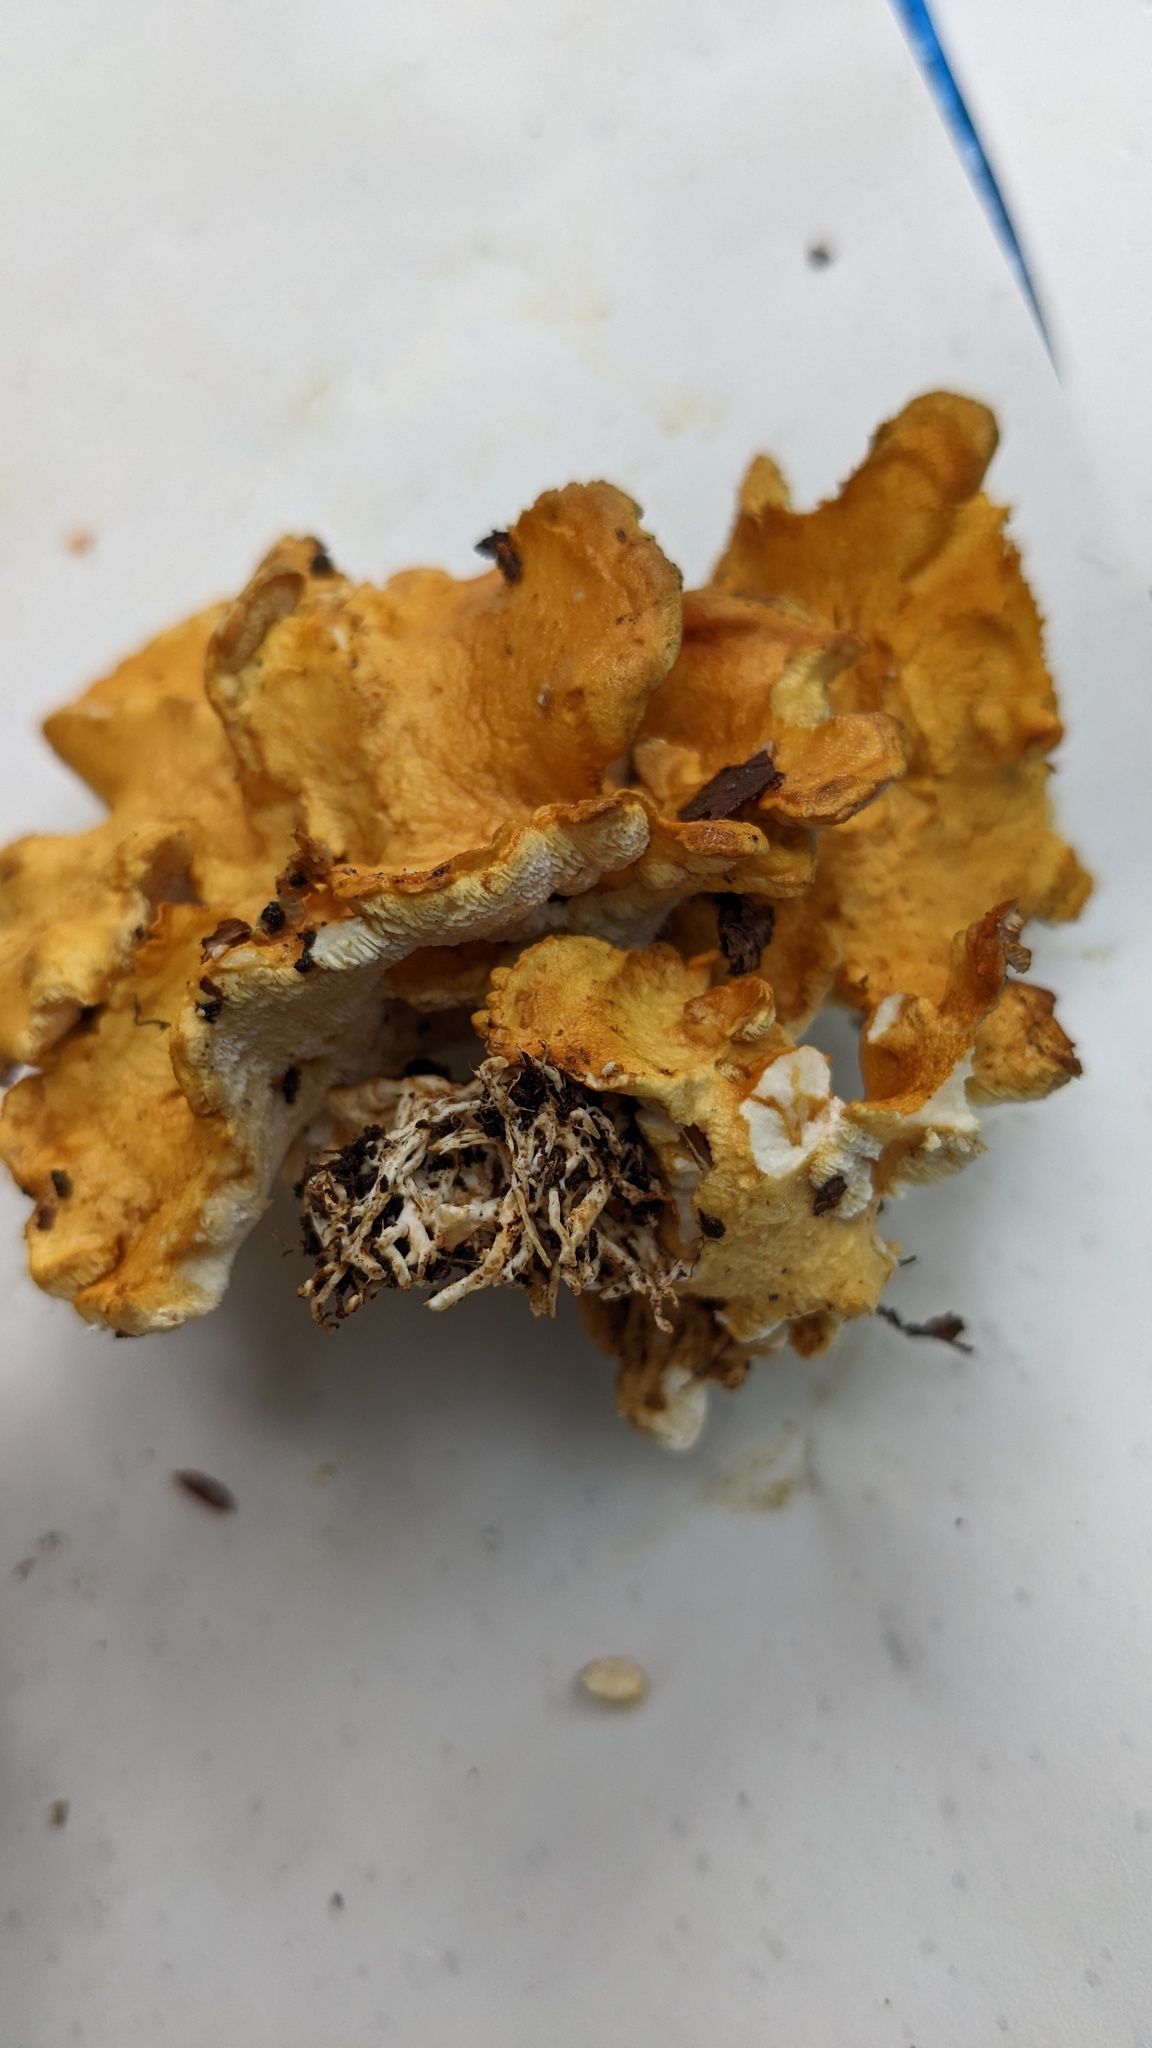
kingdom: Fungi
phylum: Basidiomycota
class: Agaricomycetes
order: Russulales
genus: Polypus
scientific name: Polypus dispansus
